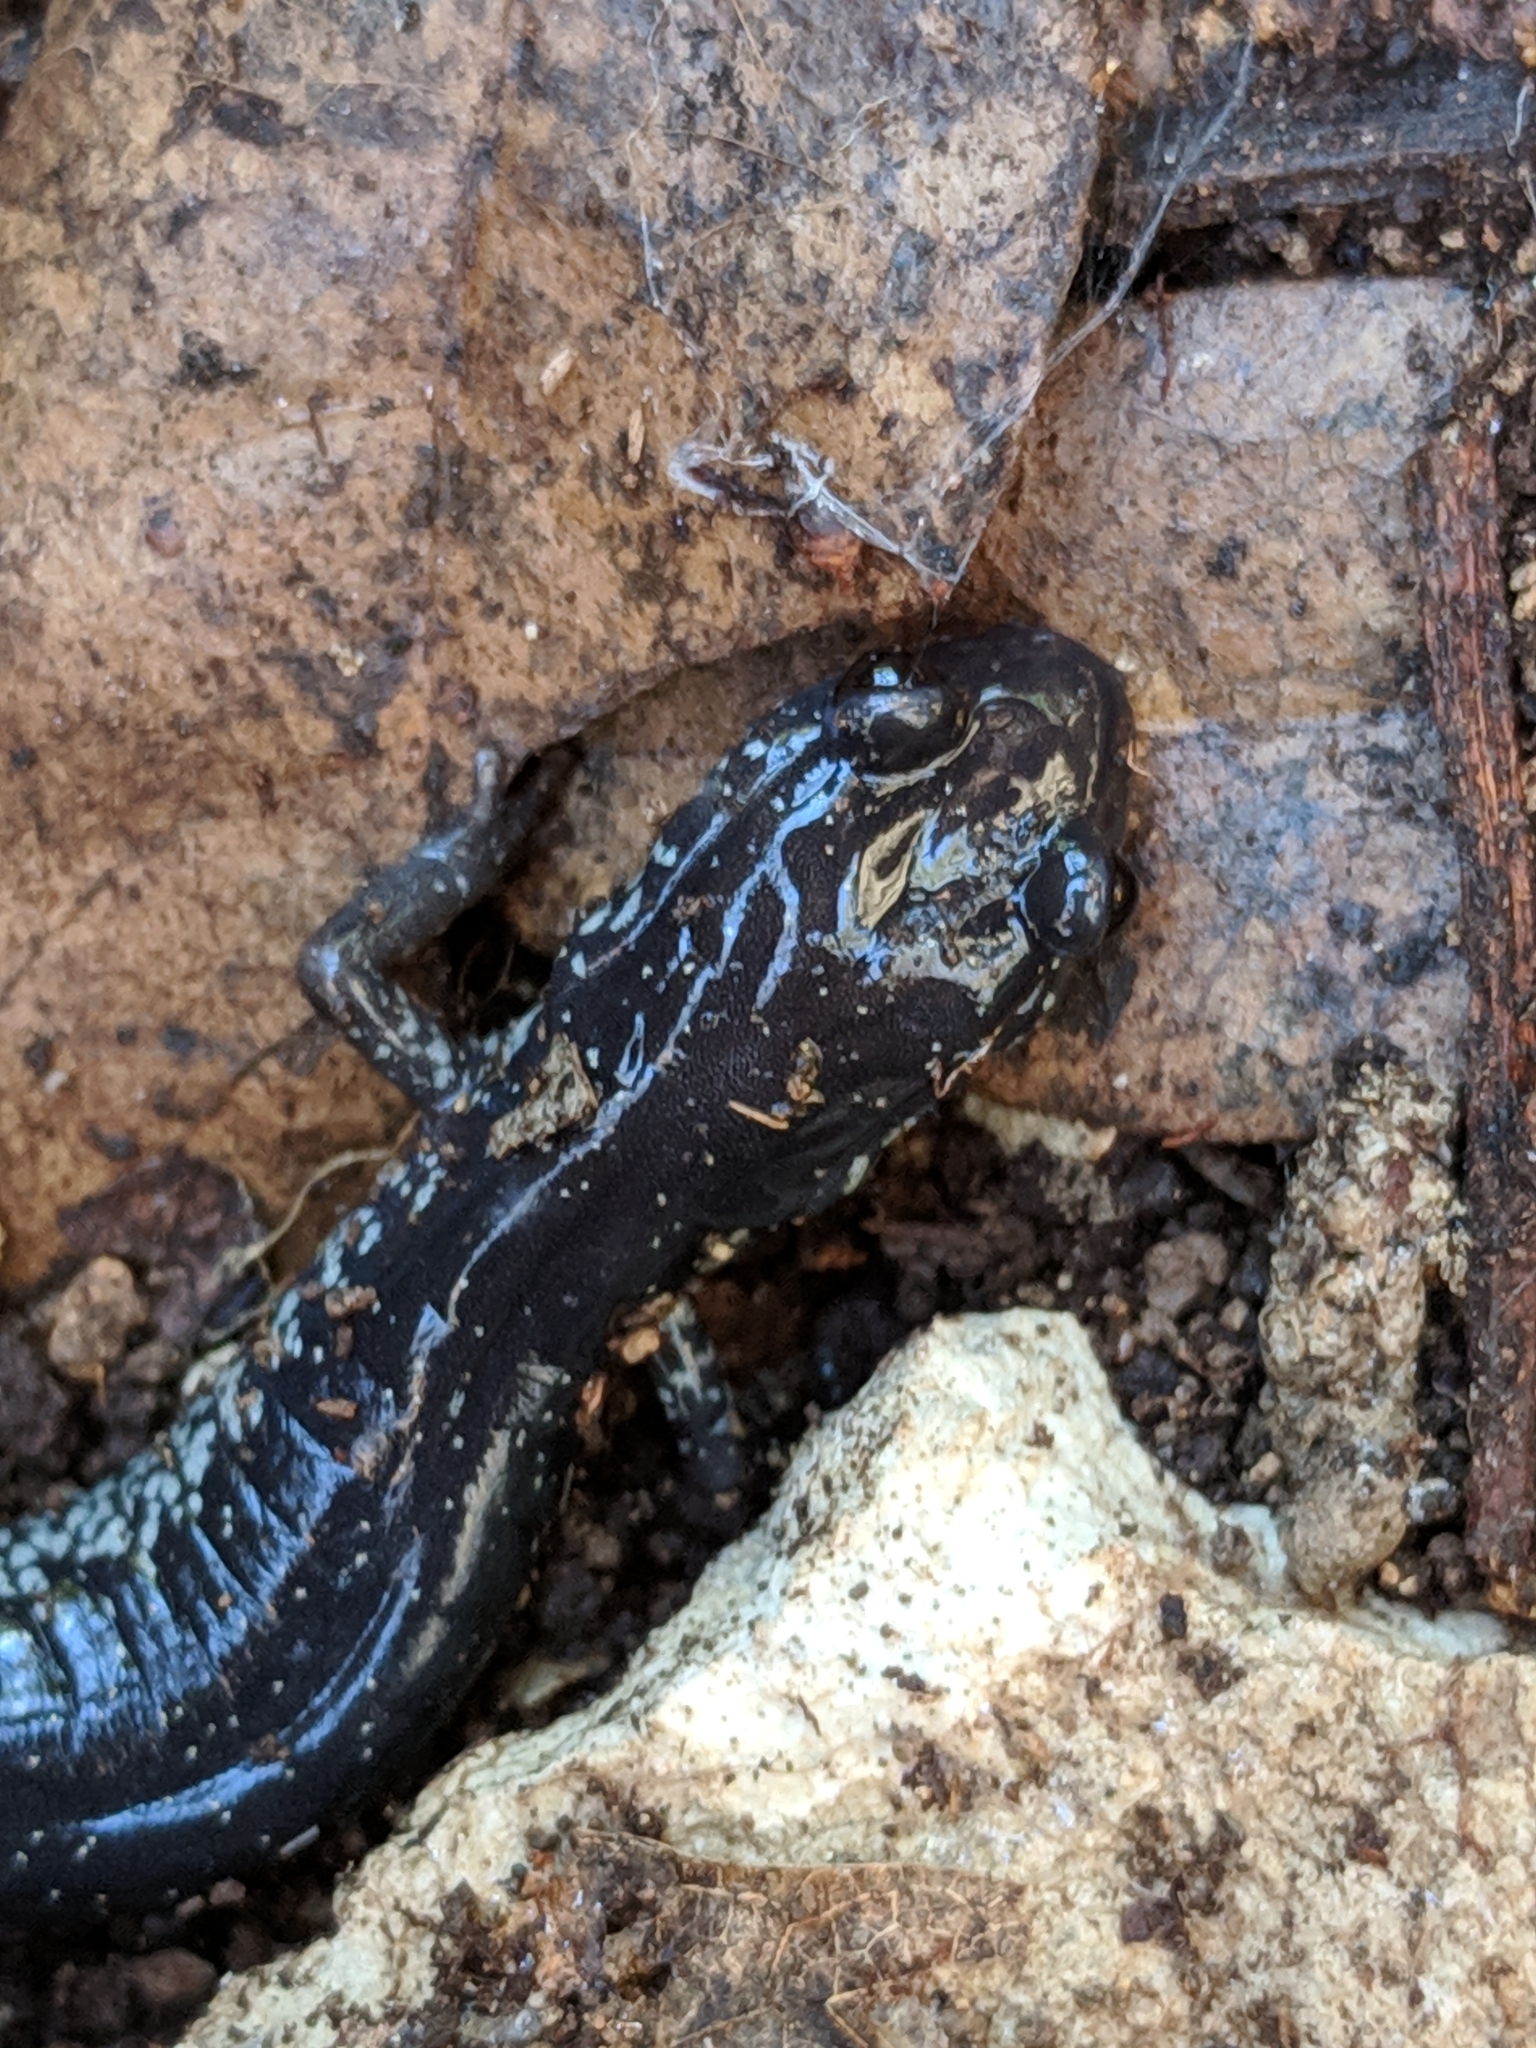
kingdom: Animalia
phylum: Chordata
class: Amphibia
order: Caudata
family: Plethodontidae
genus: Plethodon
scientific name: Plethodon albagula
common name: Western slimy salamander
